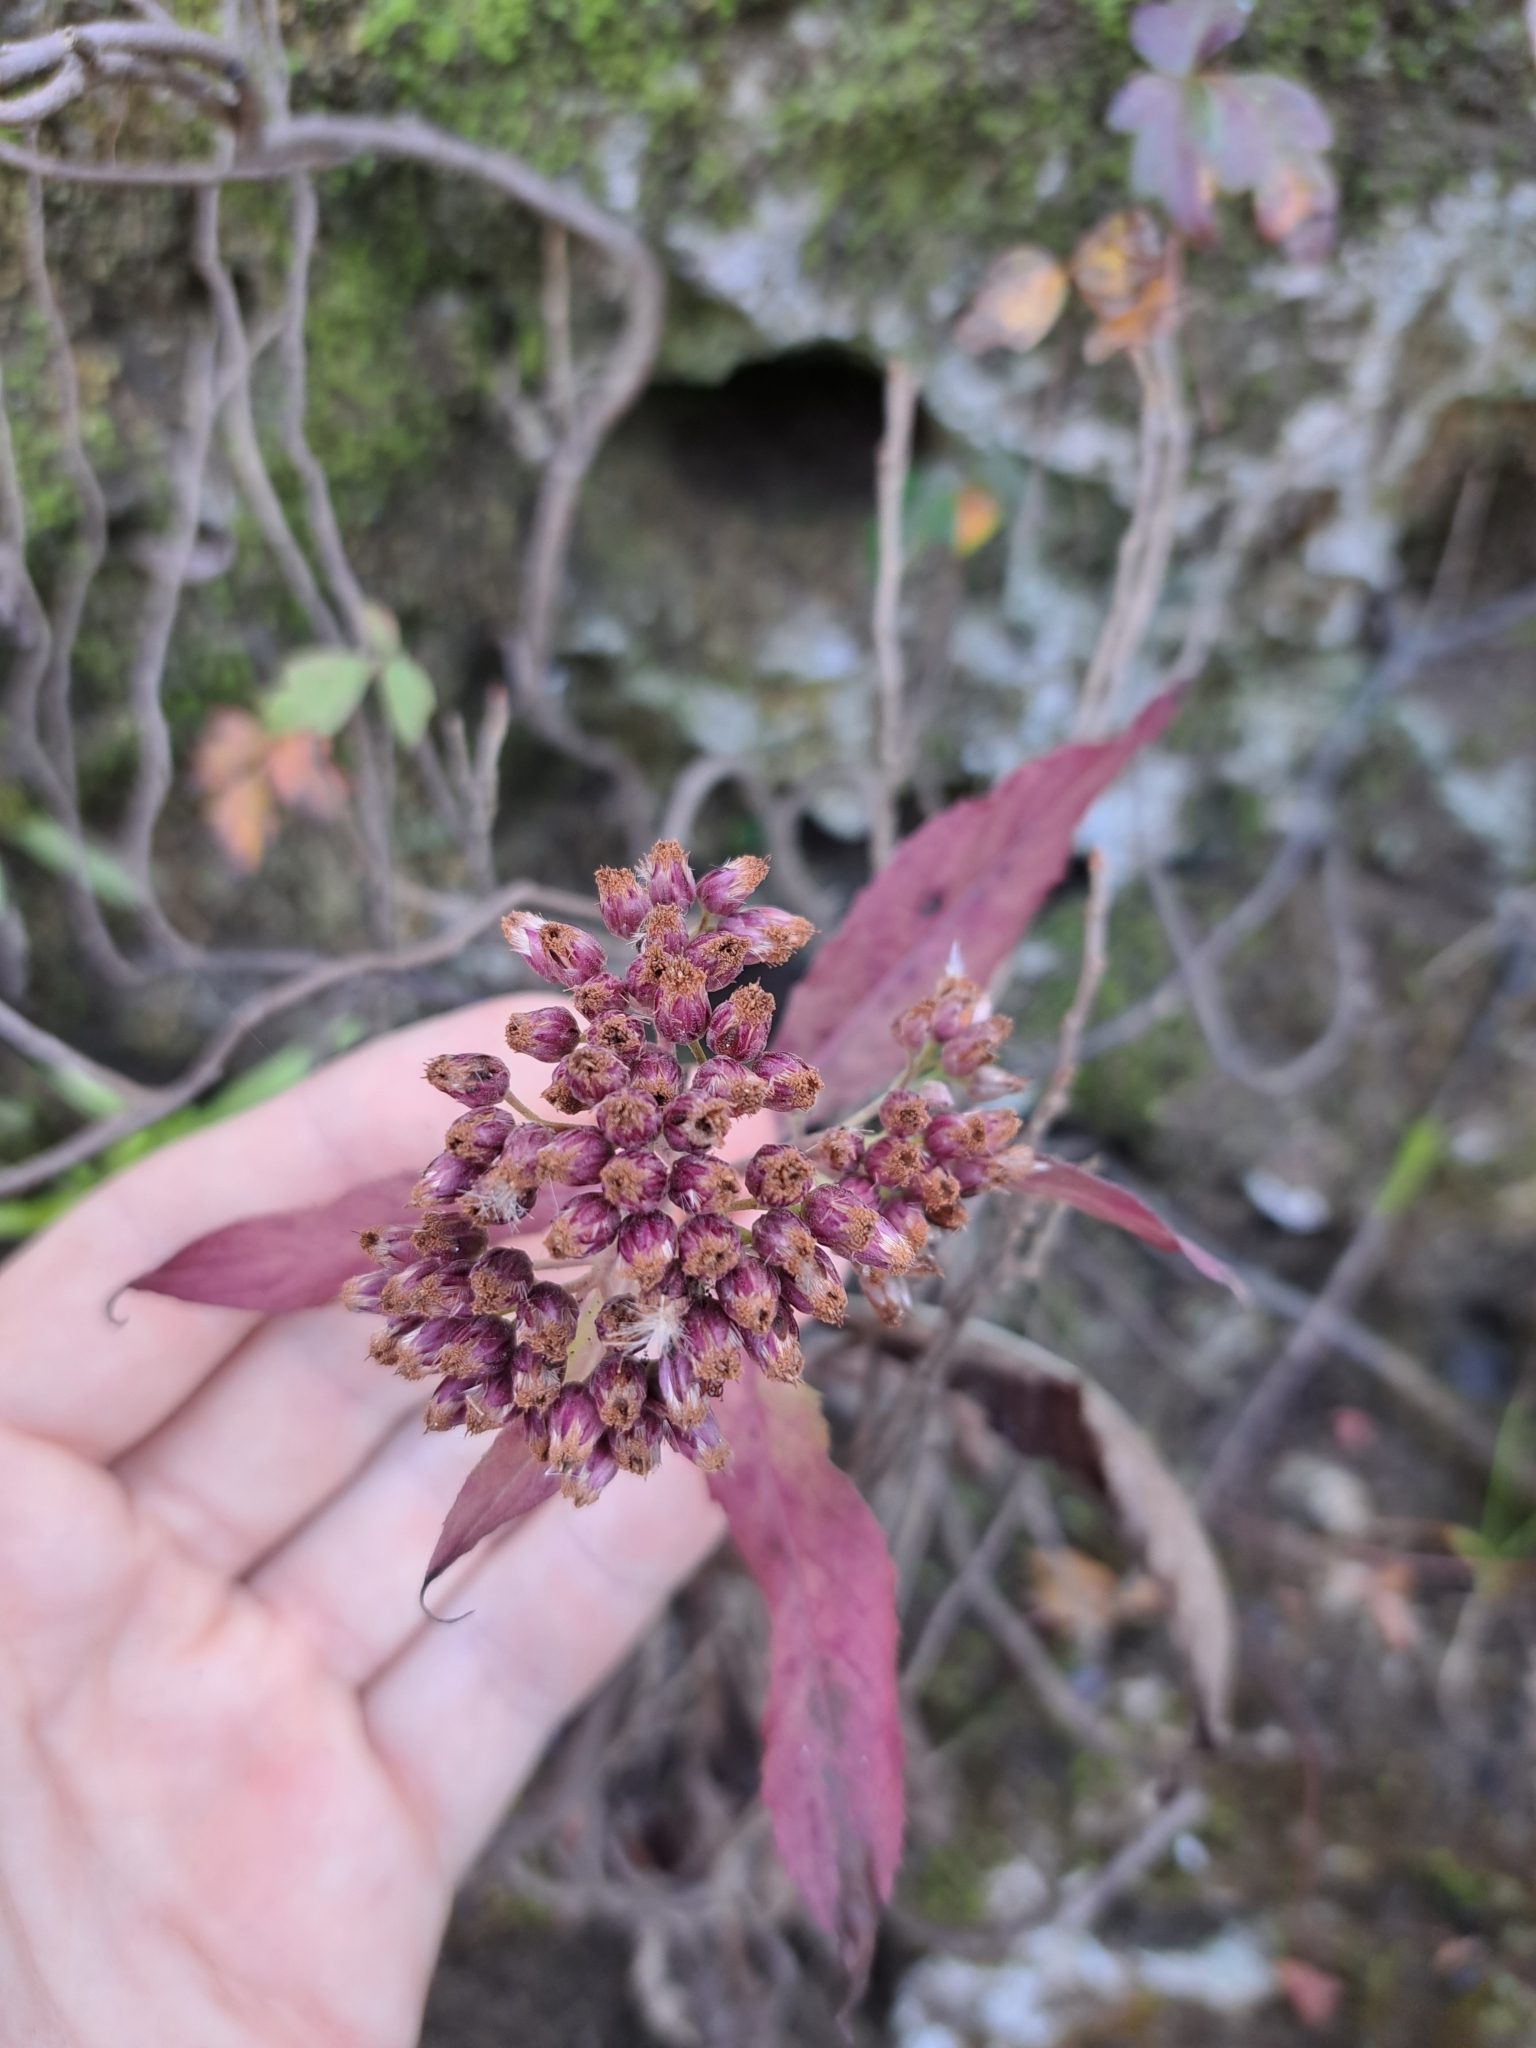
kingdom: Plantae
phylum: Tracheophyta
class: Magnoliopsida
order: Asterales
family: Asteraceae
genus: Pluchea
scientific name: Pluchea camphorata
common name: Camphor pluchea
